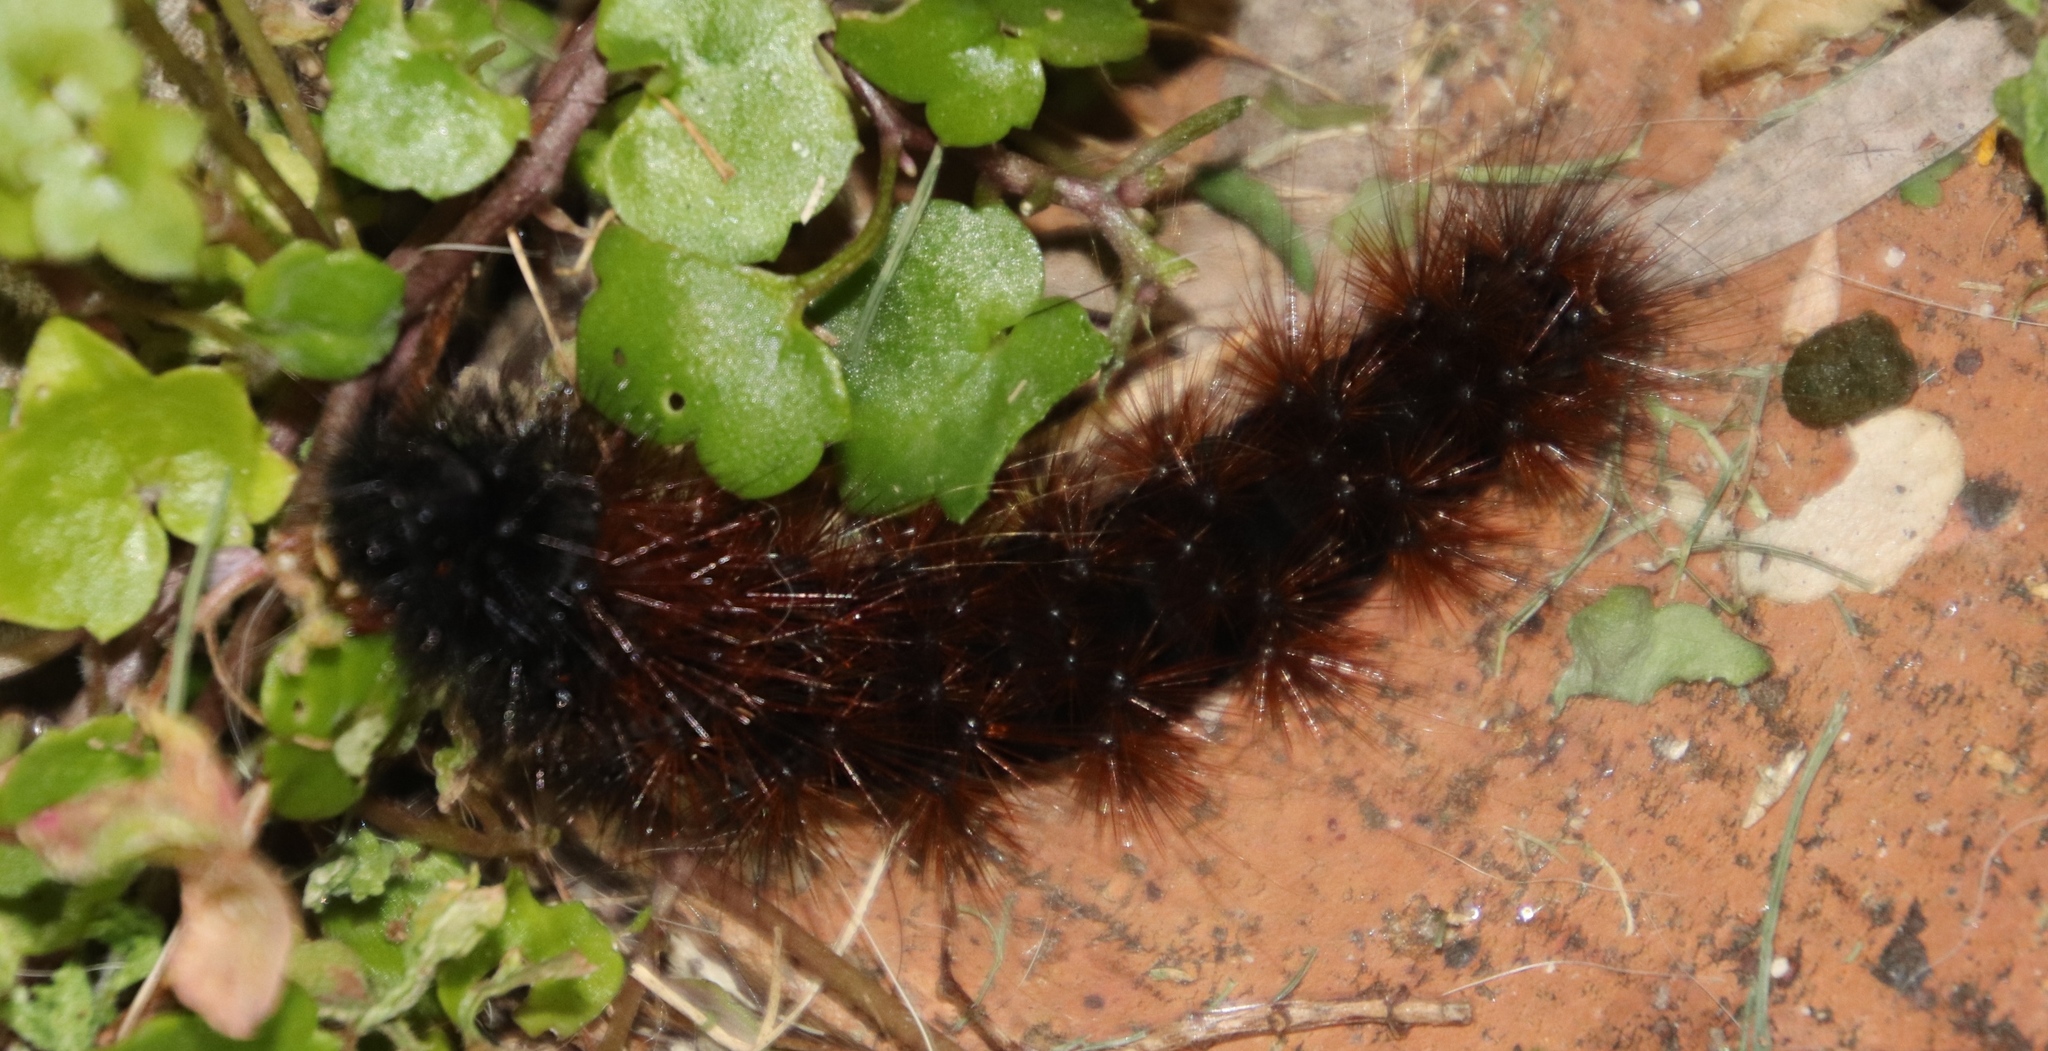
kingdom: Animalia
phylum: Arthropoda
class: Insecta
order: Lepidoptera
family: Erebidae
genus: Rhodogastria
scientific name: Rhodogastria amasis
